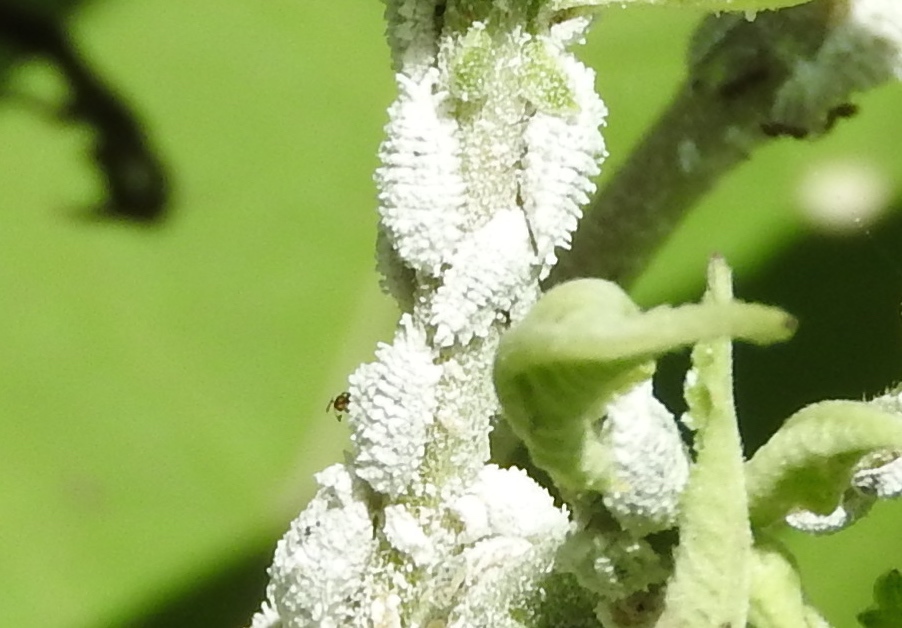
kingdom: Animalia
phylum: Arthropoda
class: Insecta
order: Hemiptera
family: Pseudococcidae
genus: Planococcus
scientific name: Planococcus
